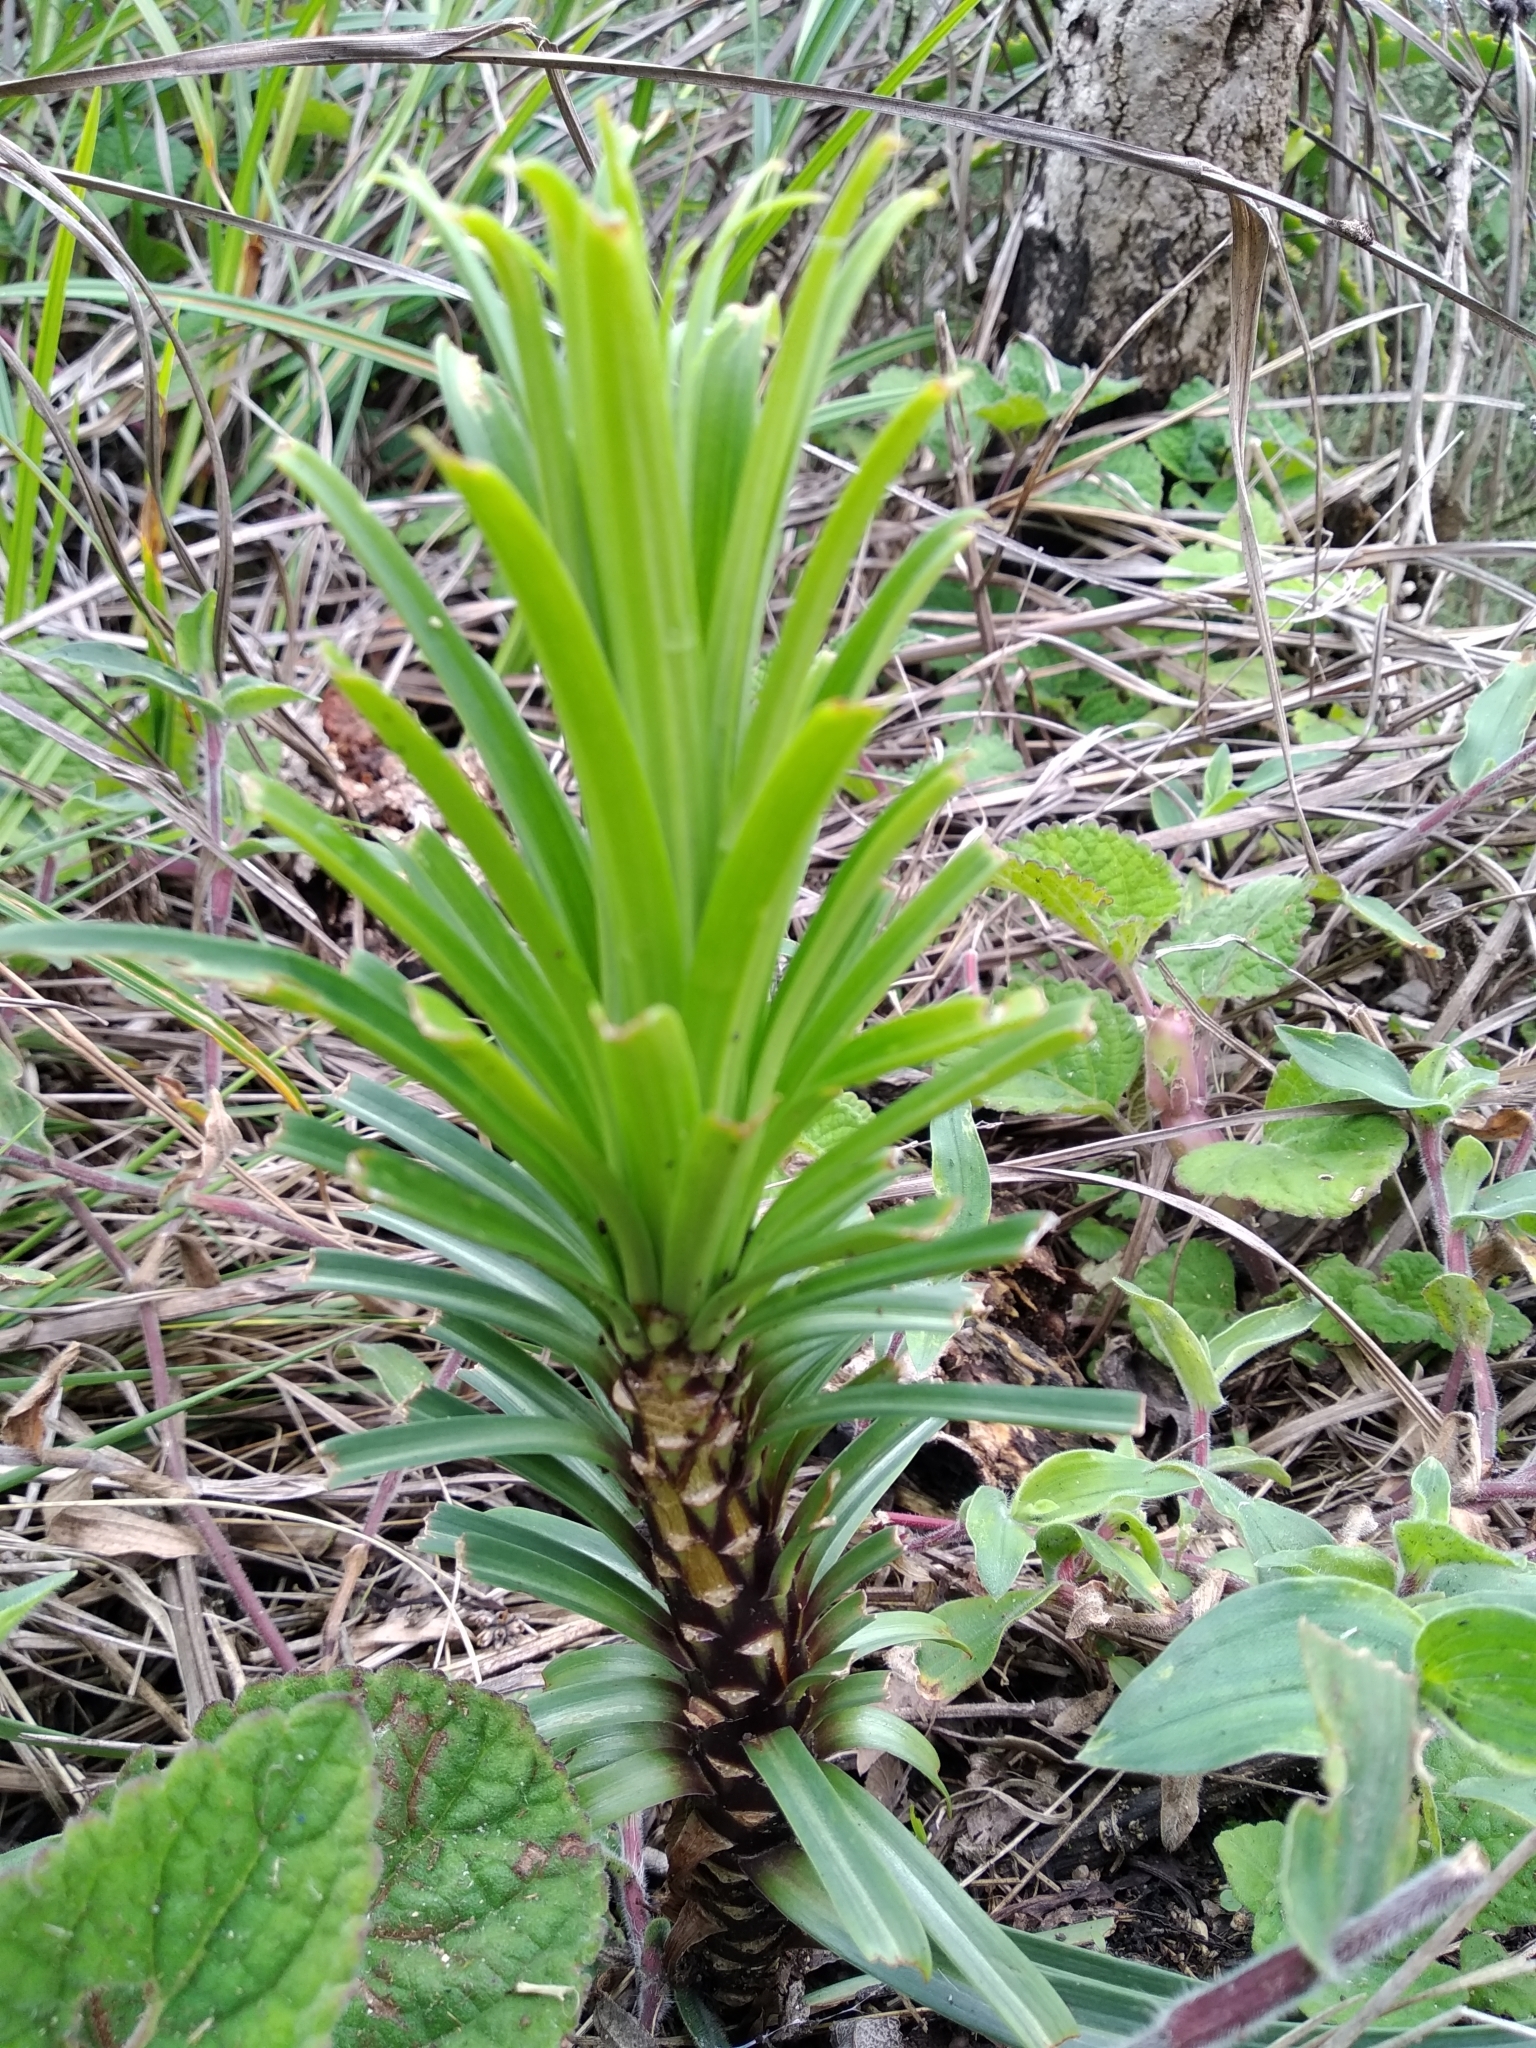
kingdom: Plantae
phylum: Tracheophyta
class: Liliopsida
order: Liliales
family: Liliaceae
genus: Lilium
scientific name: Lilium formosanum
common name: Formosa lily
